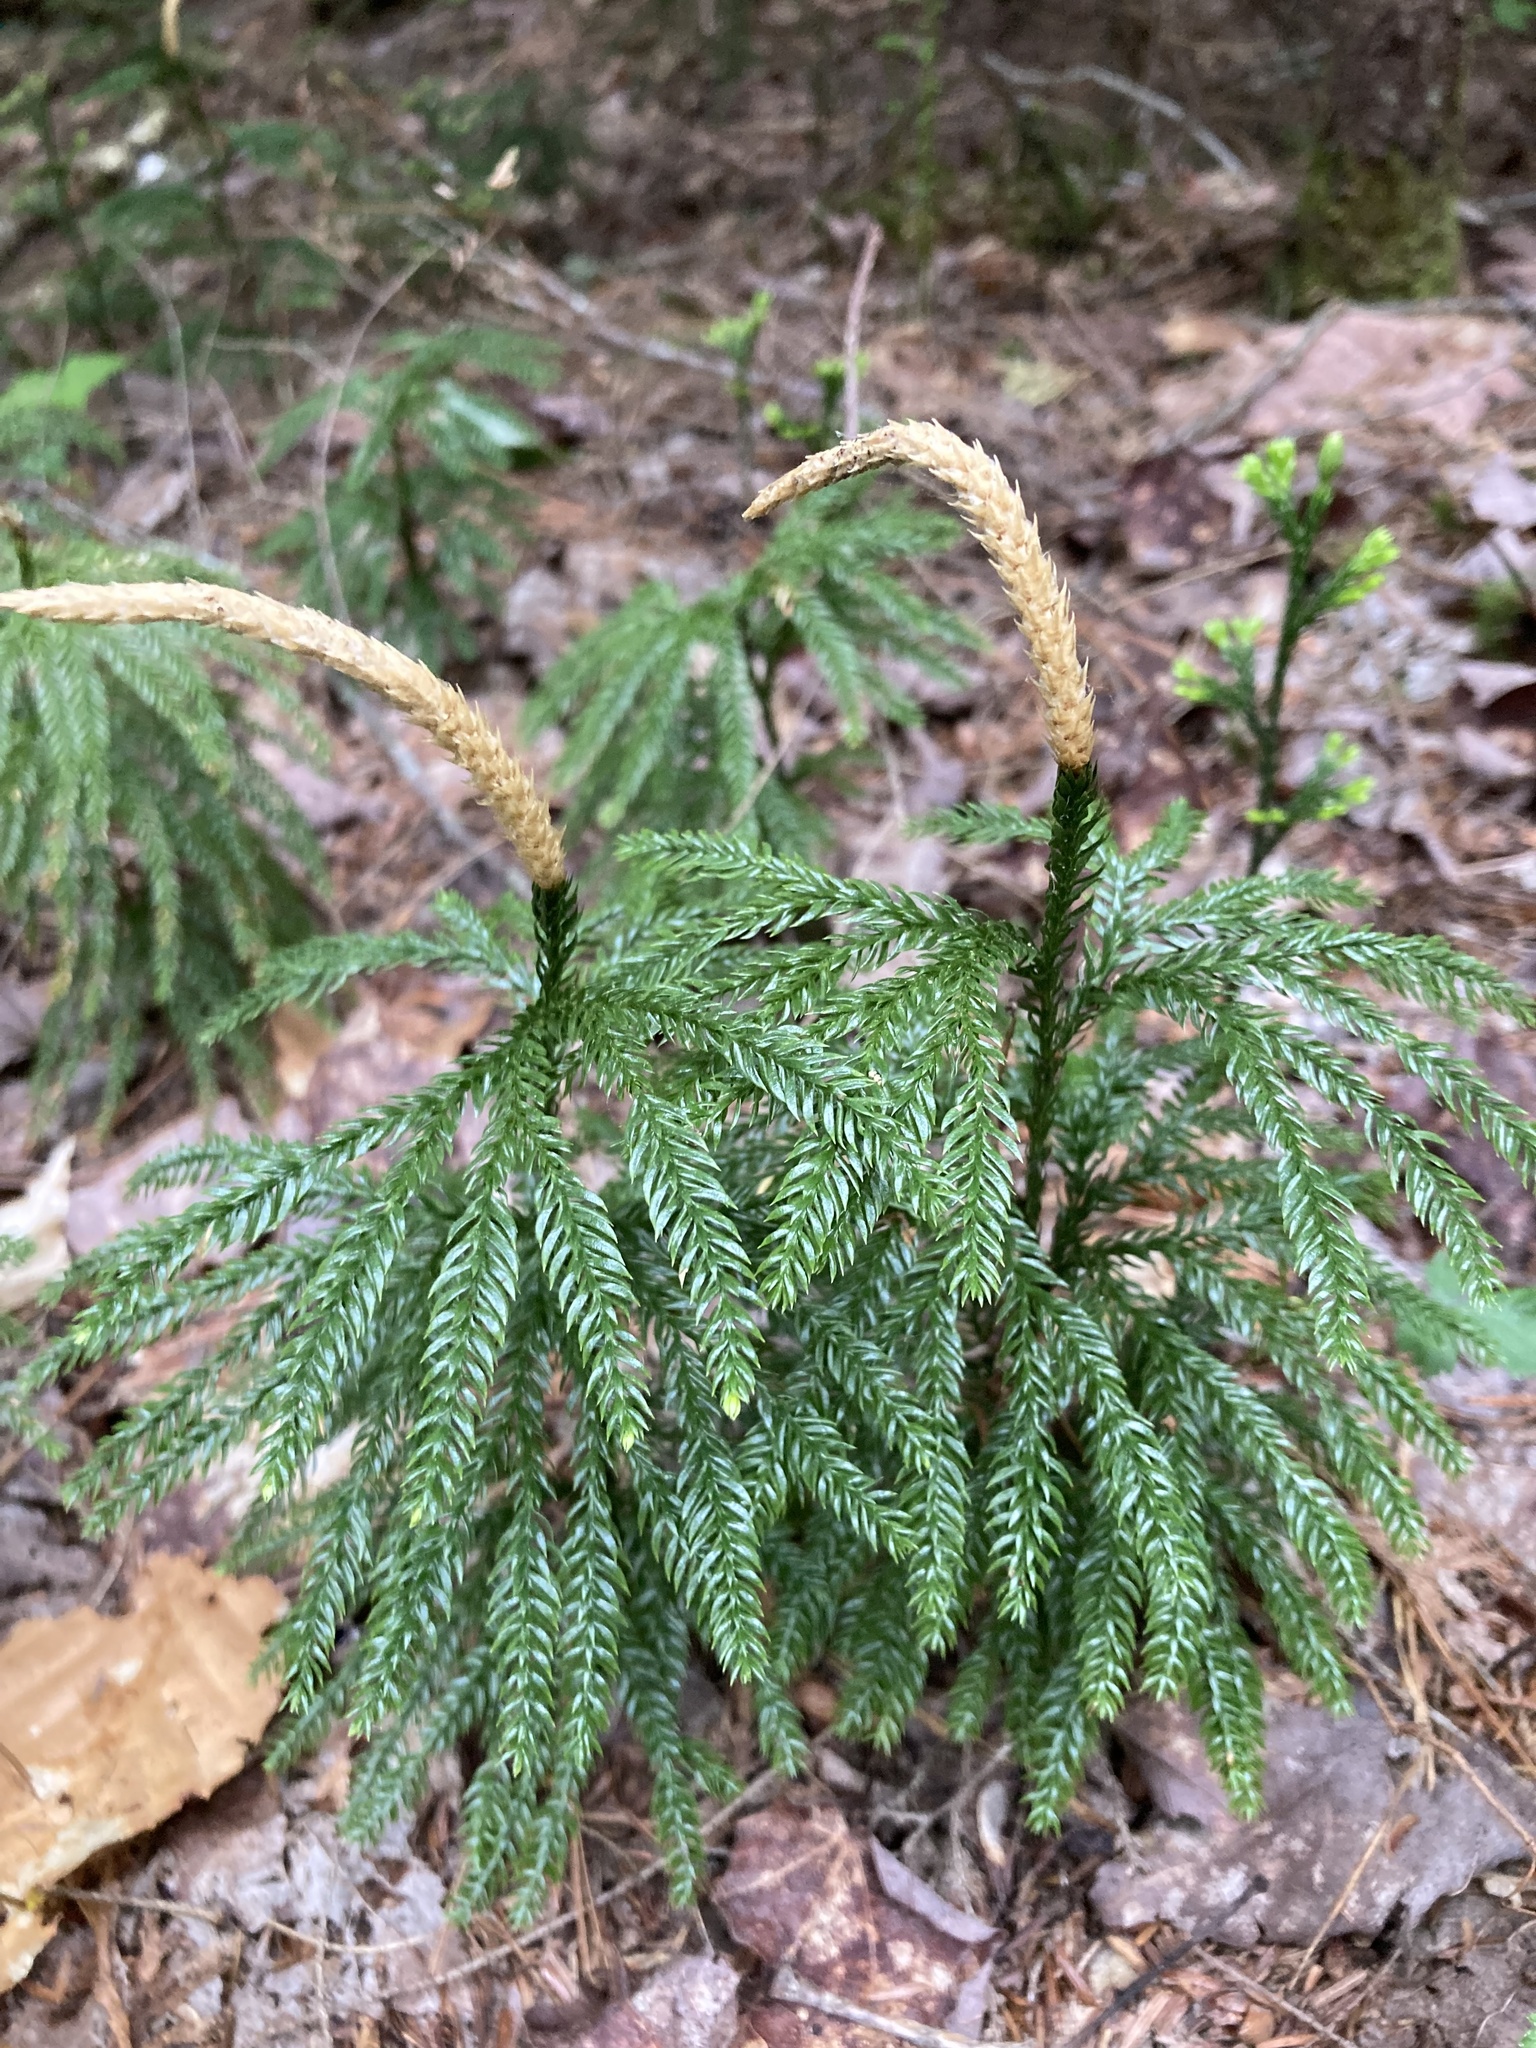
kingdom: Plantae
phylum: Tracheophyta
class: Lycopodiopsida
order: Lycopodiales
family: Lycopodiaceae
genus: Dendrolycopodium
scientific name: Dendrolycopodium obscurum
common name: Common ground-pine
